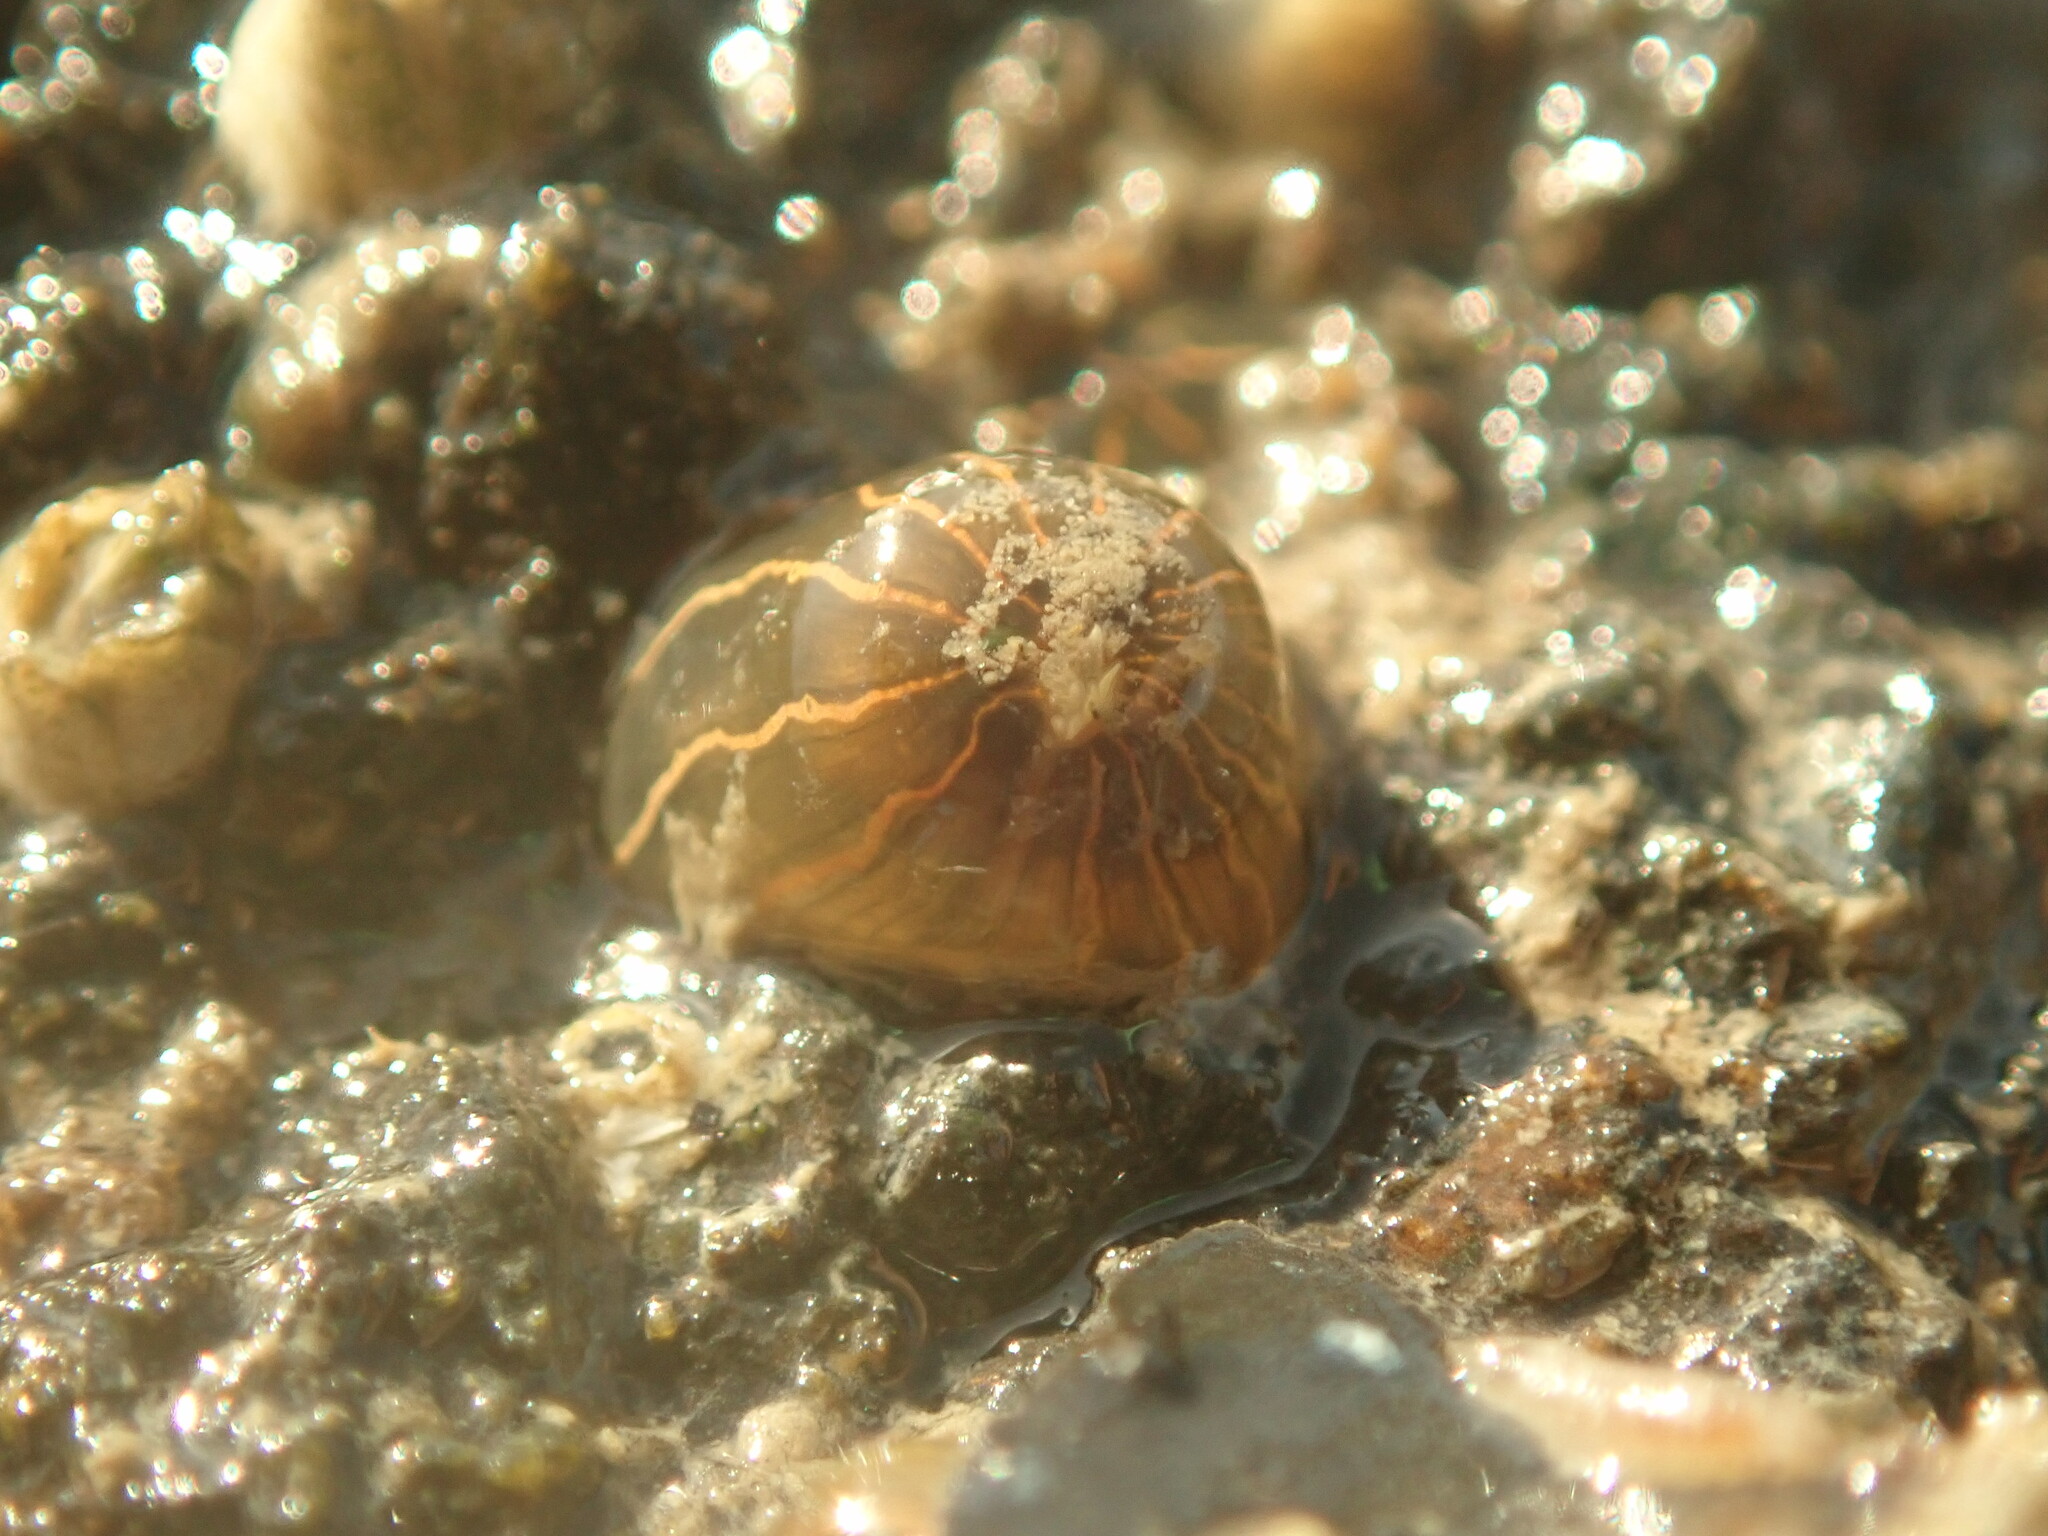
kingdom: Animalia
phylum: Cnidaria
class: Anthozoa
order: Actiniaria
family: Diadumenidae
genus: Diadumene
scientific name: Diadumene lineata
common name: Orange-striped anemone
